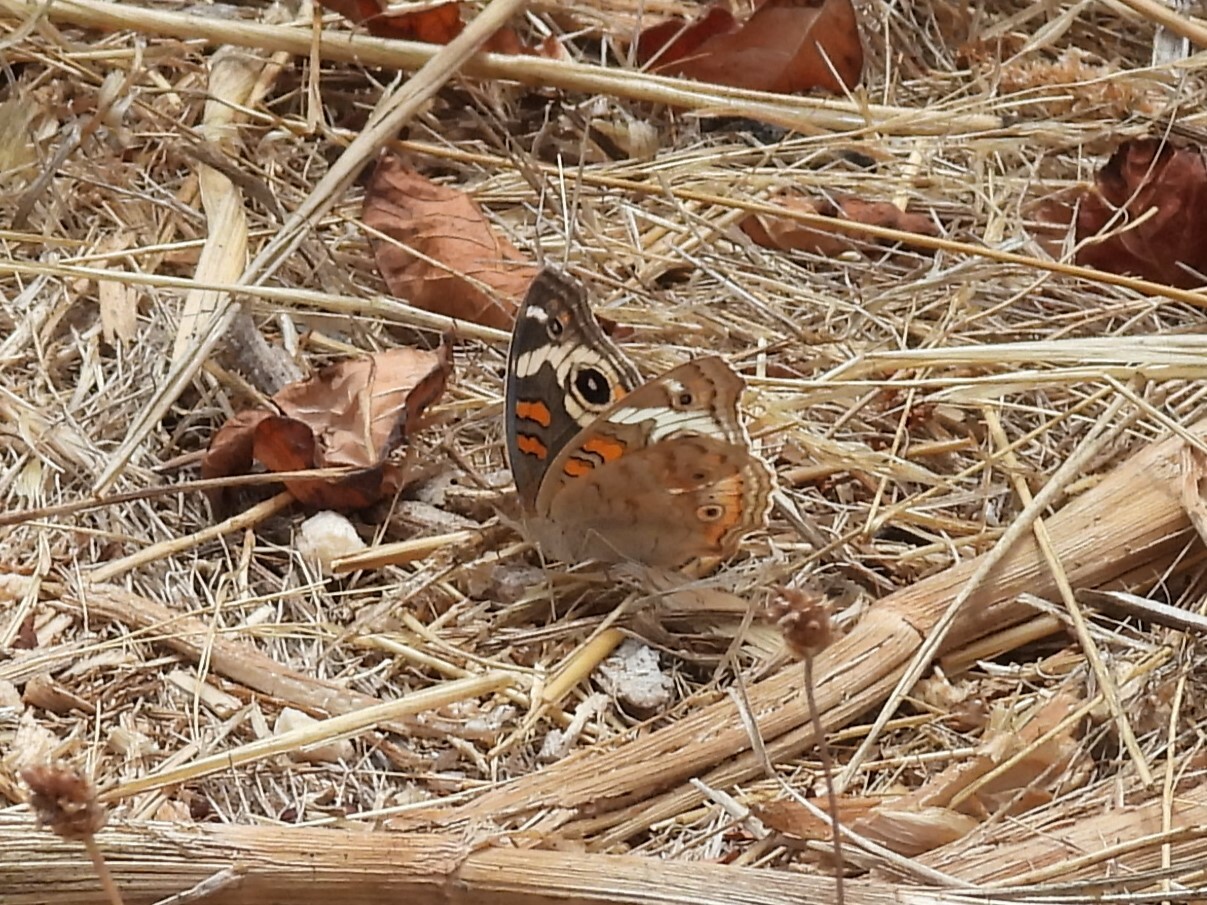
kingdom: Animalia
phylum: Arthropoda
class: Insecta
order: Lepidoptera
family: Nymphalidae
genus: Junonia
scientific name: Junonia grisea
